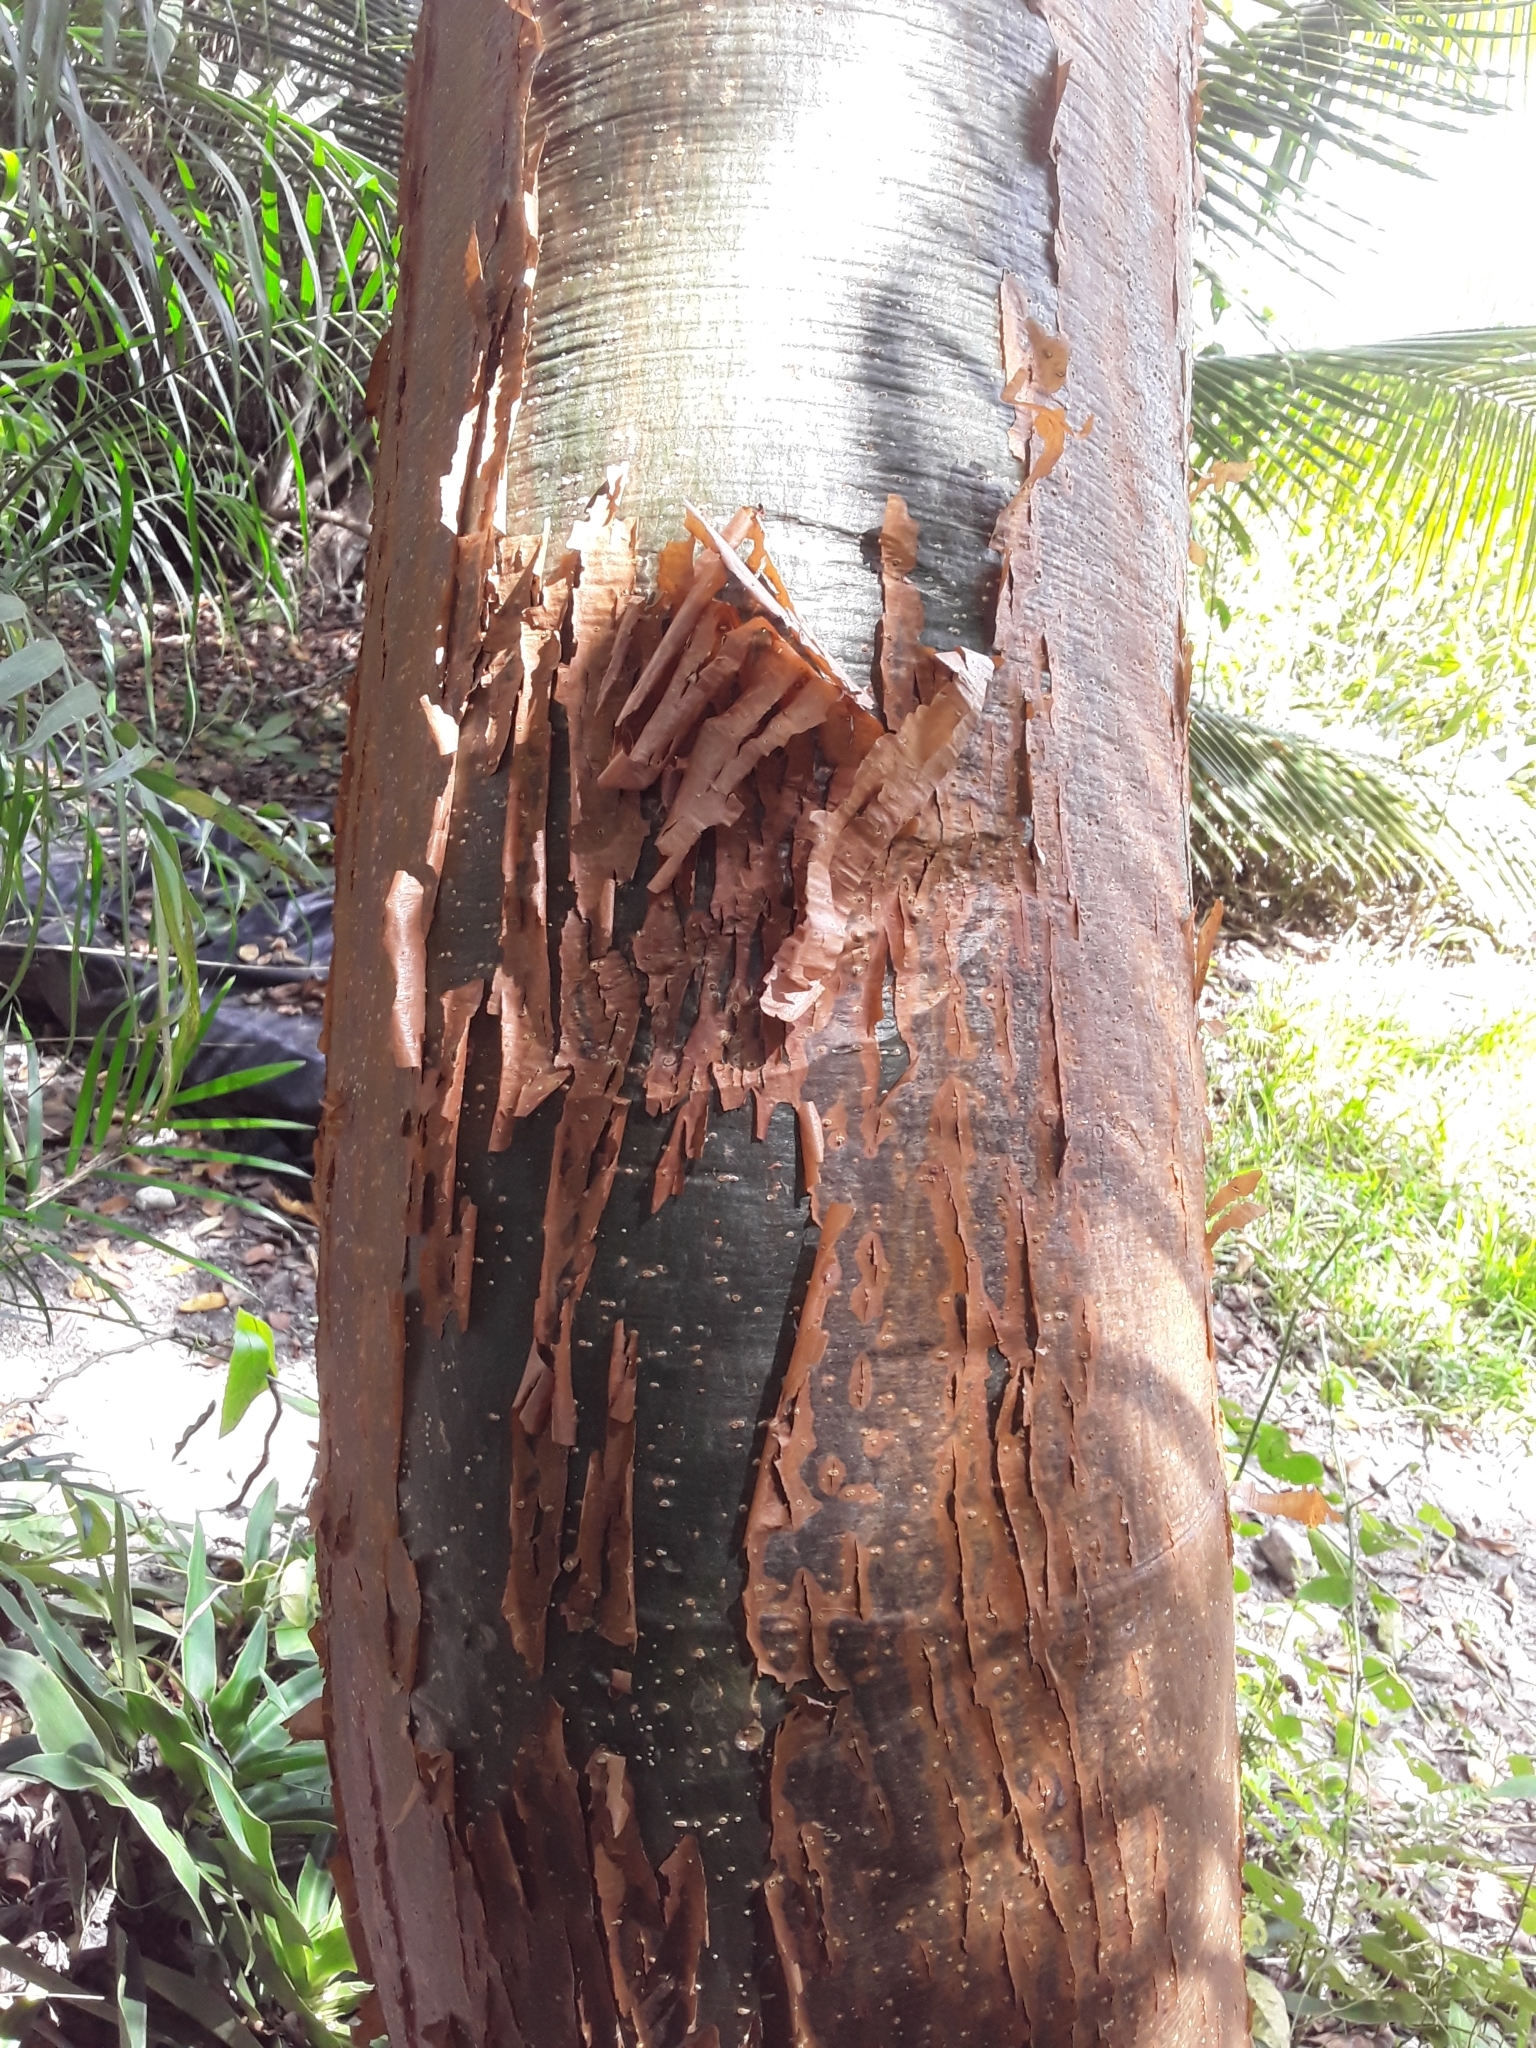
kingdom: Plantae
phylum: Tracheophyta
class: Magnoliopsida
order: Sapindales
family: Burseraceae
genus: Bursera
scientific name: Bursera simaruba
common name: Turpentine tree
